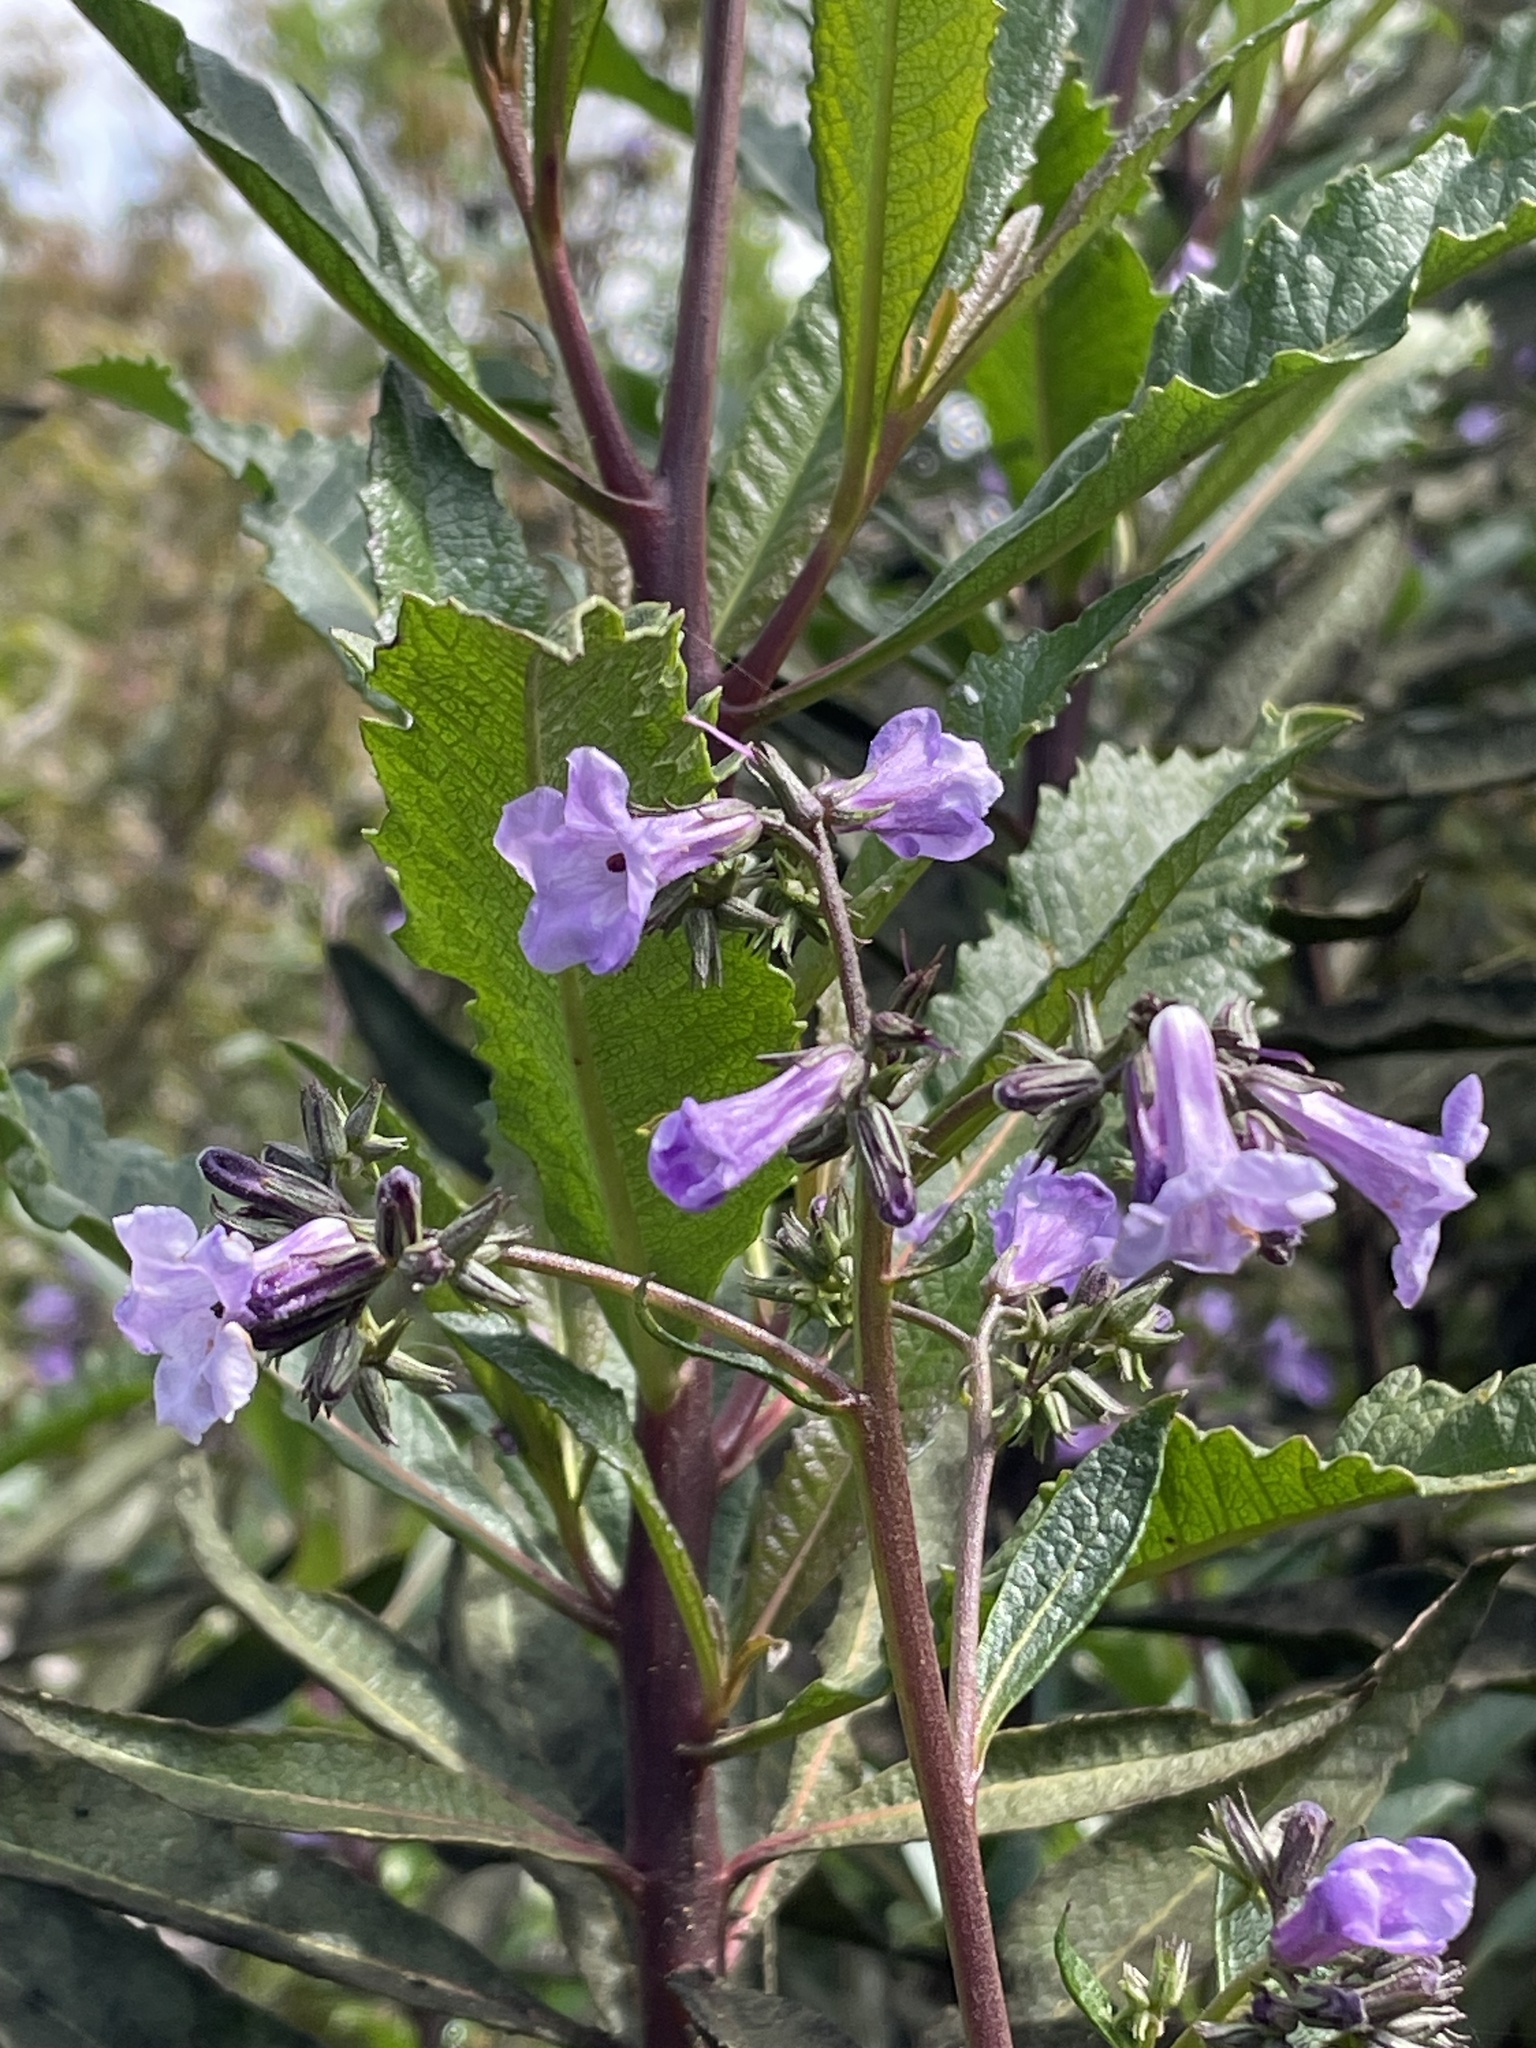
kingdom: Plantae
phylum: Tracheophyta
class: Magnoliopsida
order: Boraginales
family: Namaceae
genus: Eriodictyon
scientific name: Eriodictyon californicum
